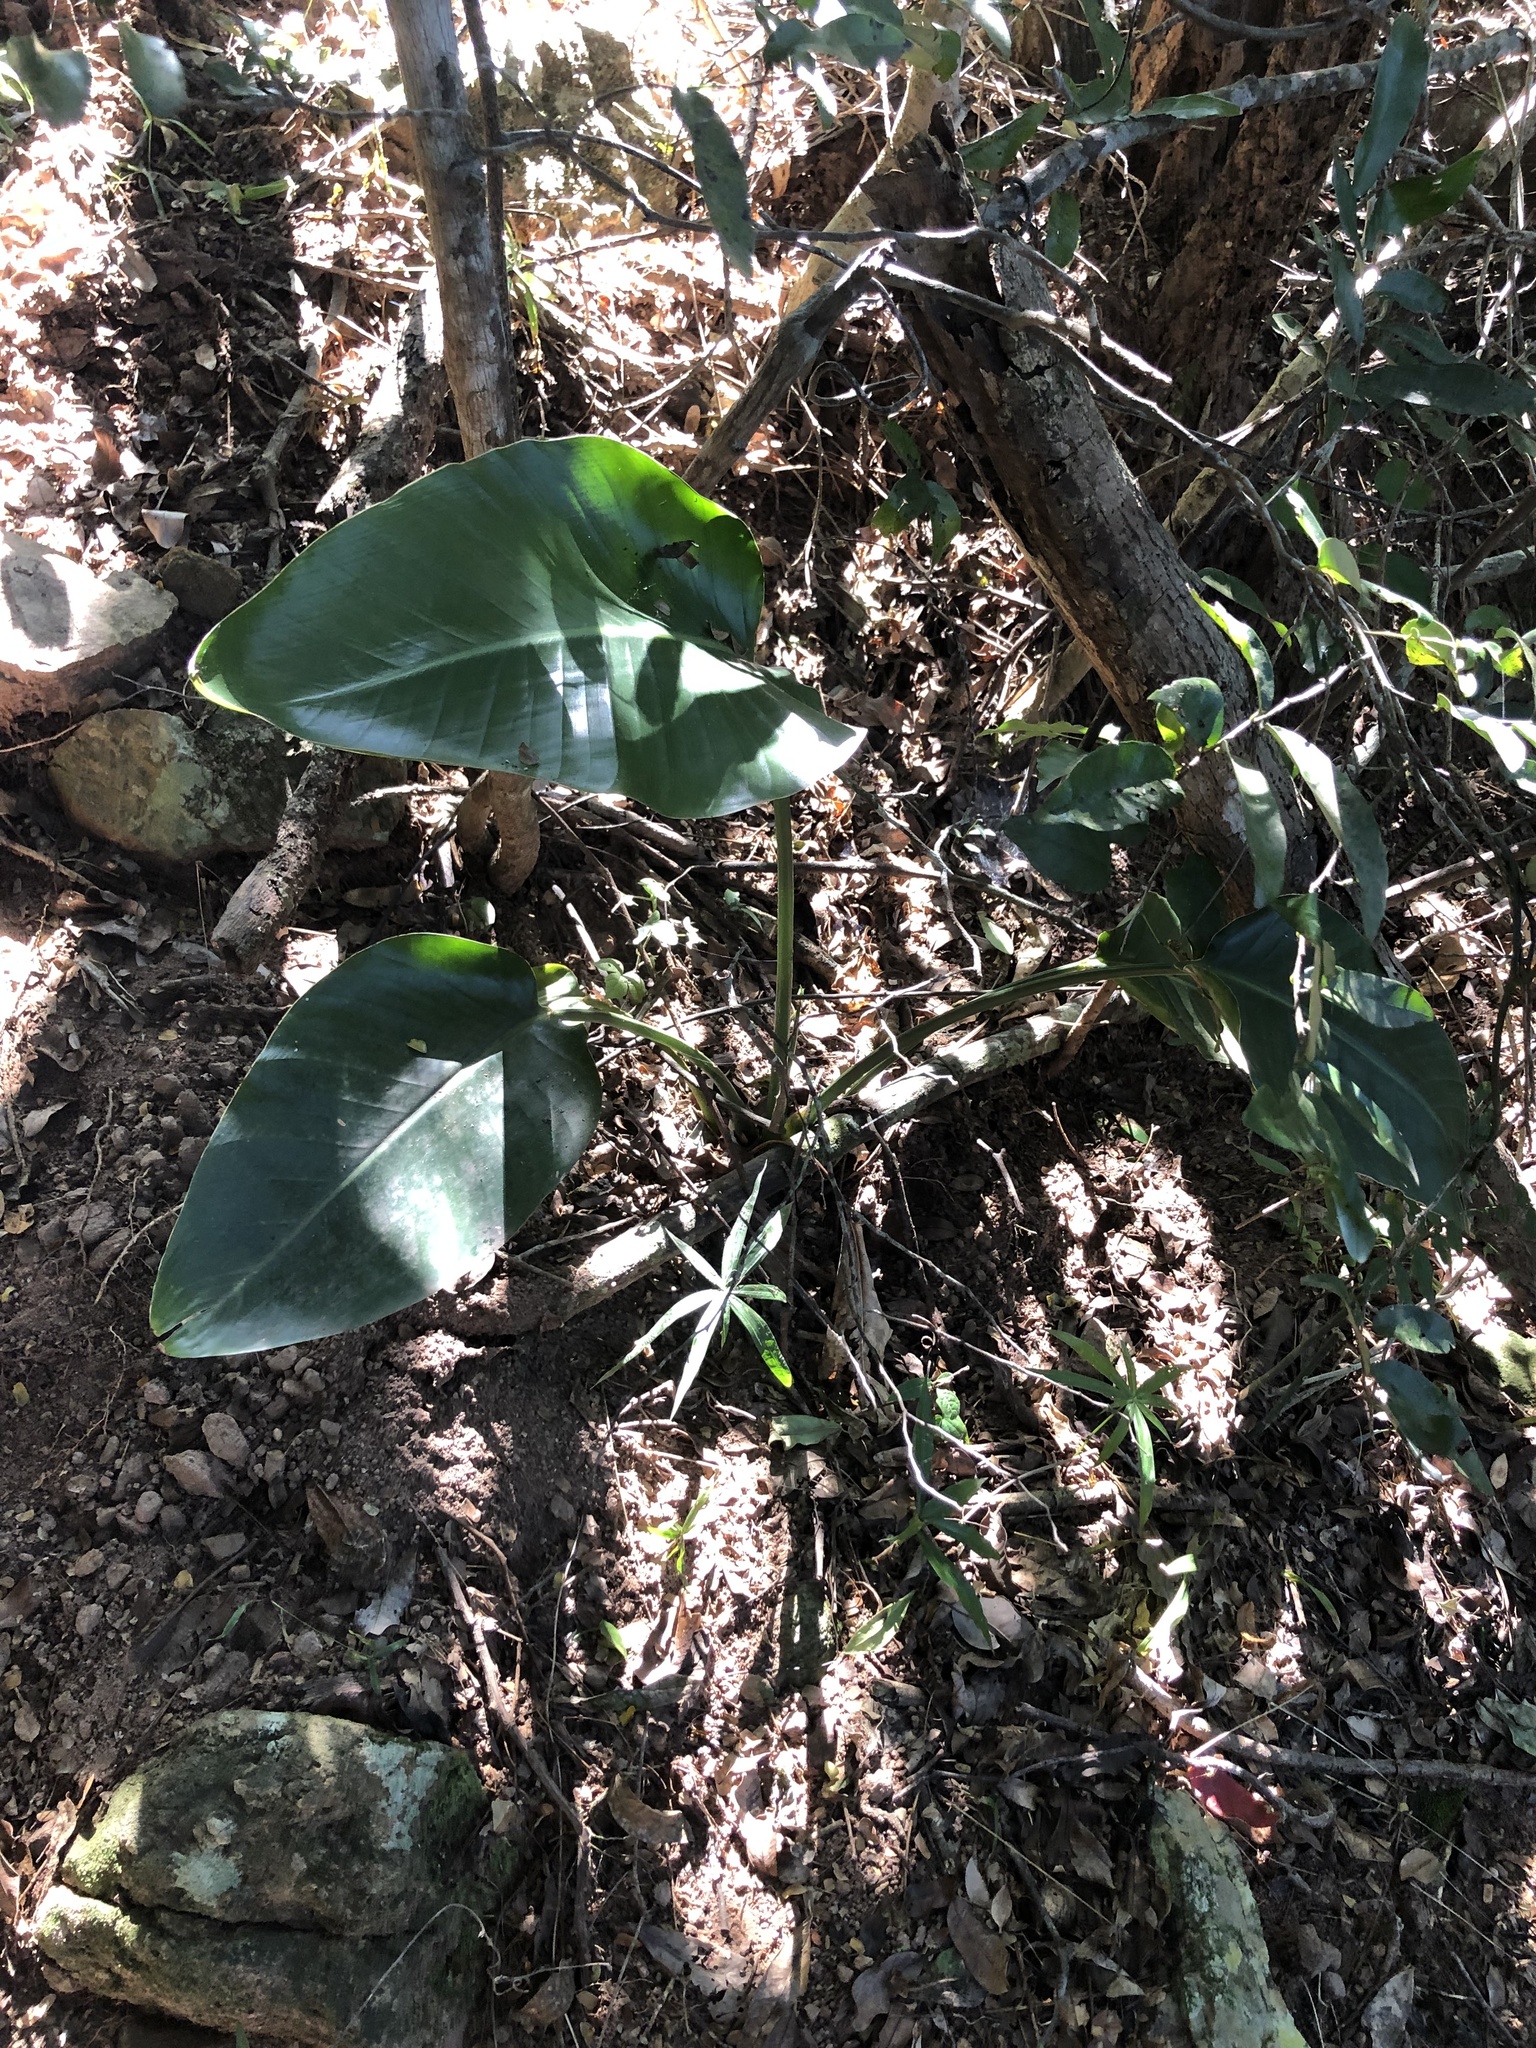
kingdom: Plantae
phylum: Tracheophyta
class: Liliopsida
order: Zingiberales
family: Strelitziaceae
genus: Strelitzia
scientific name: Strelitzia nicolai
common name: Bird-of-paradise tree
